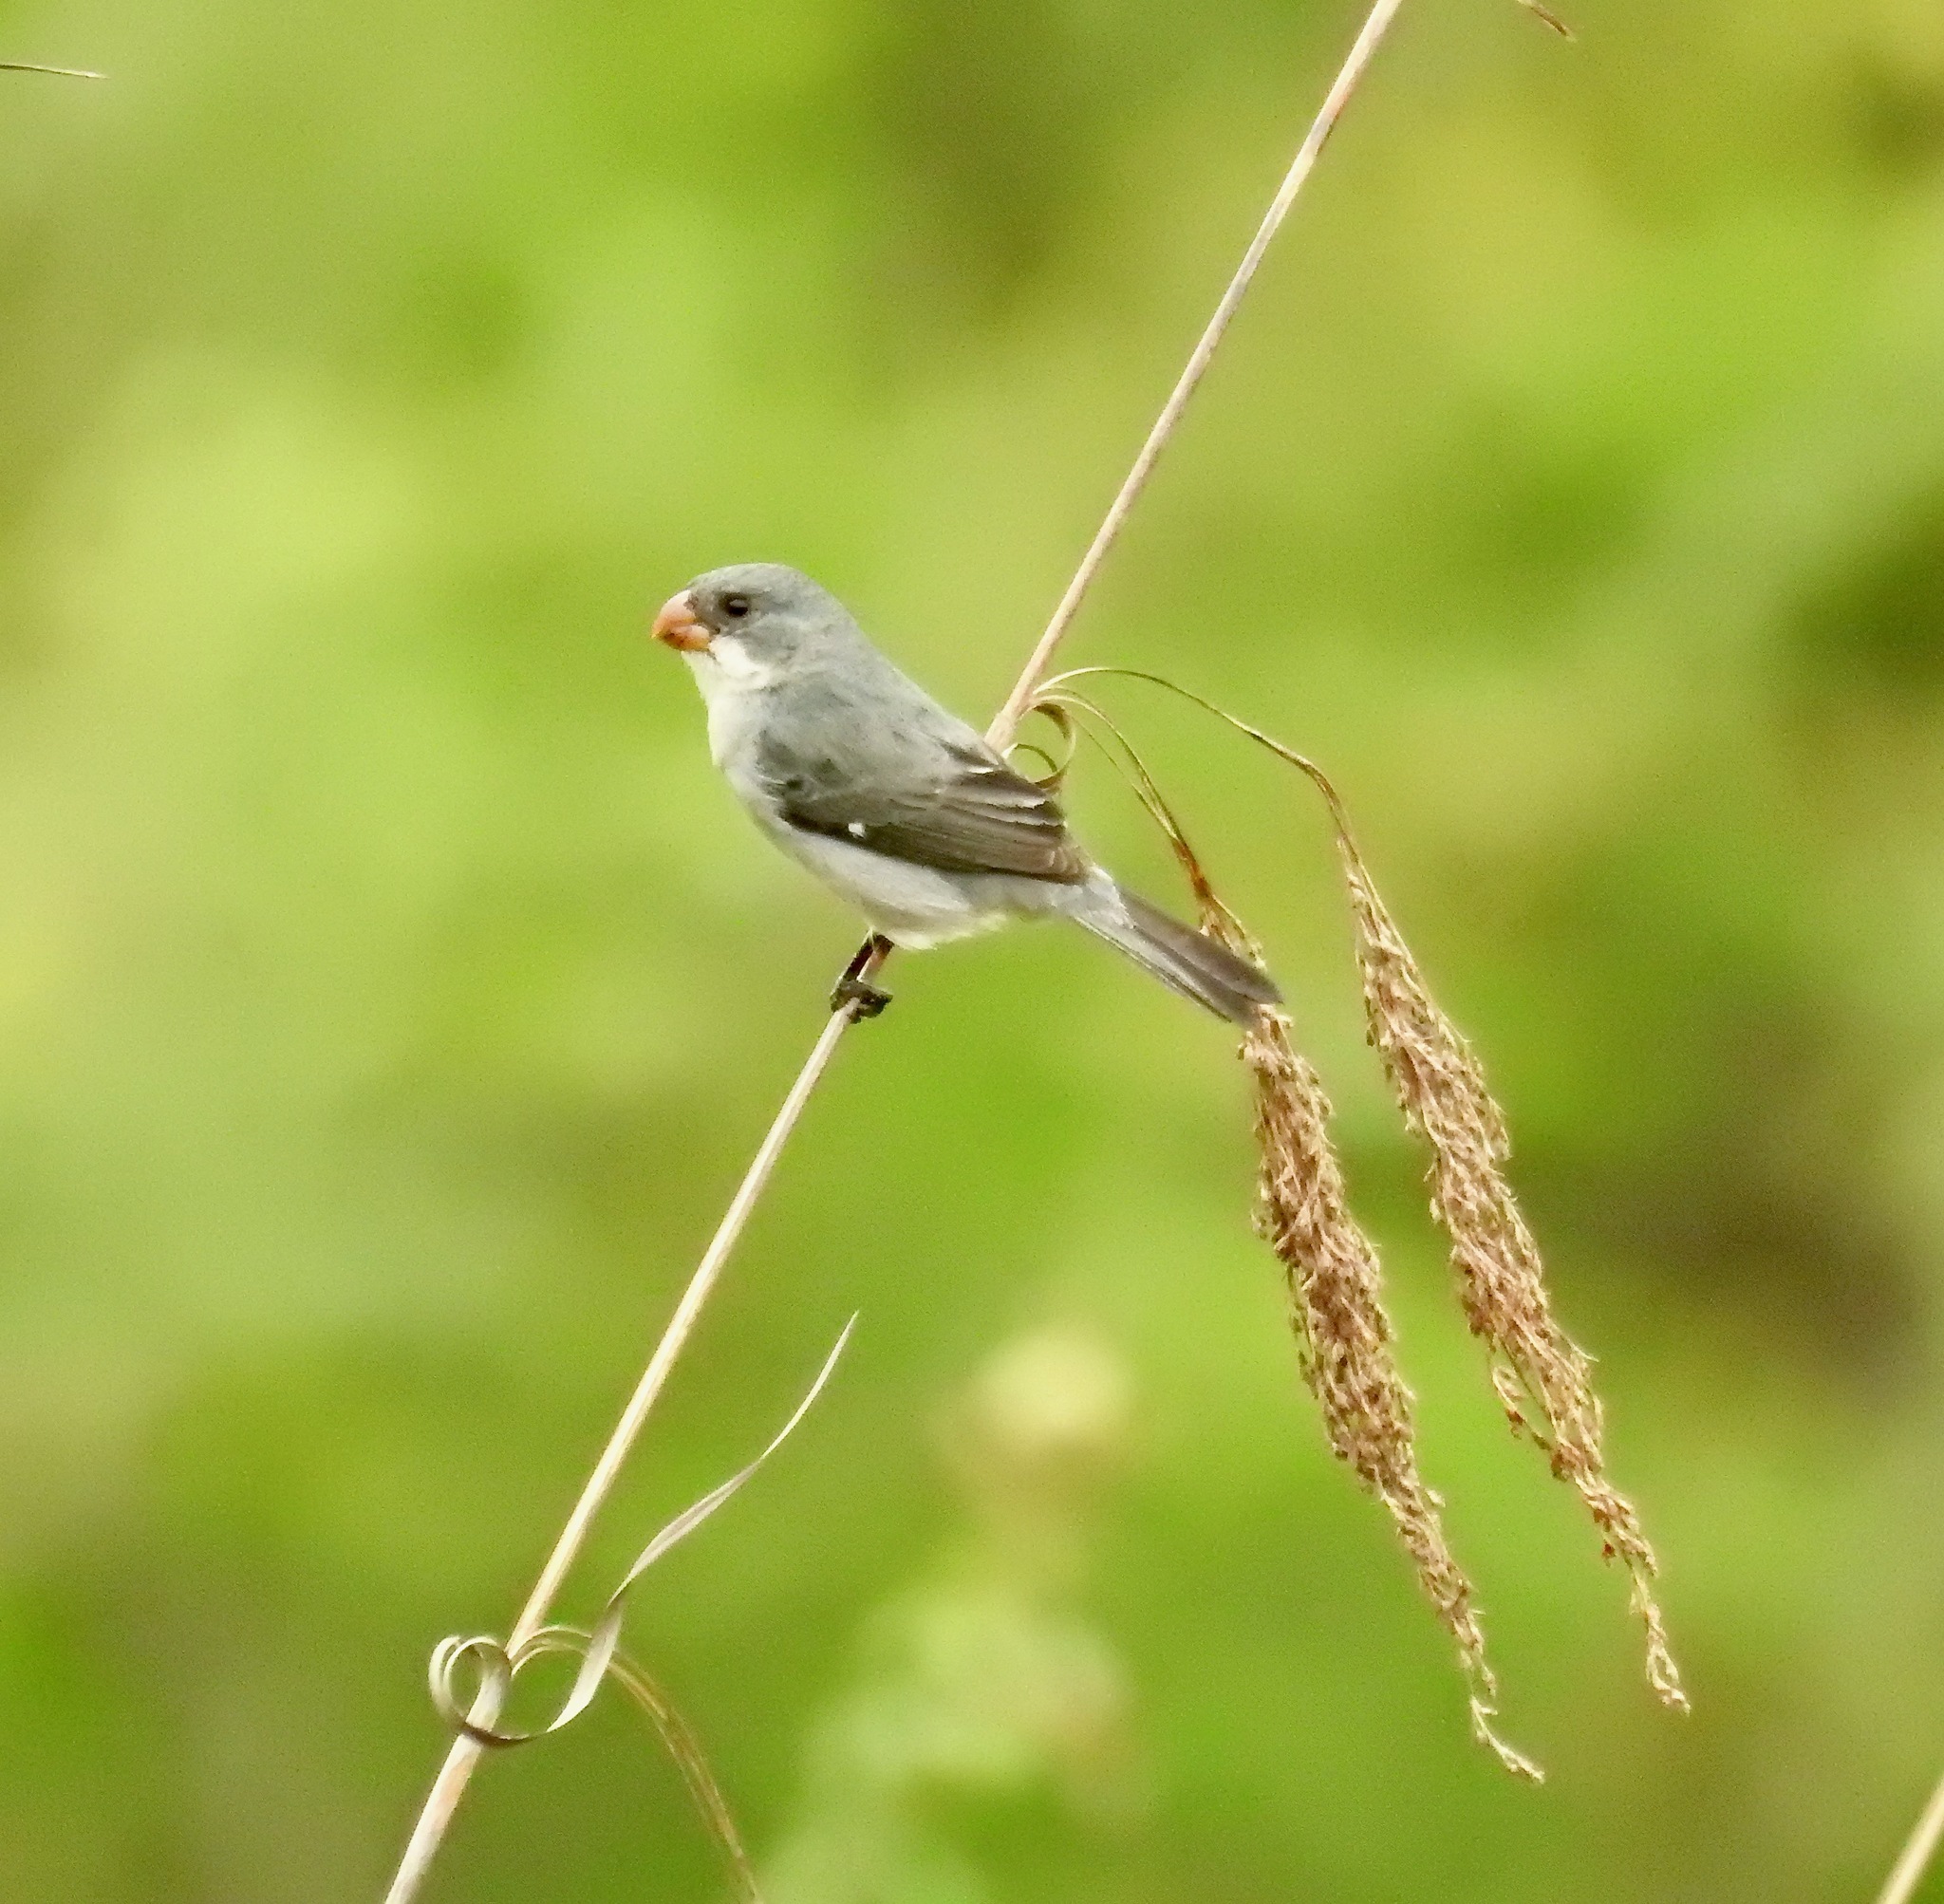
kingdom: Animalia
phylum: Chordata
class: Aves
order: Passeriformes
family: Thraupidae
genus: Sporophila
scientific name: Sporophila leucoptera
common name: White-bellied seedeater
